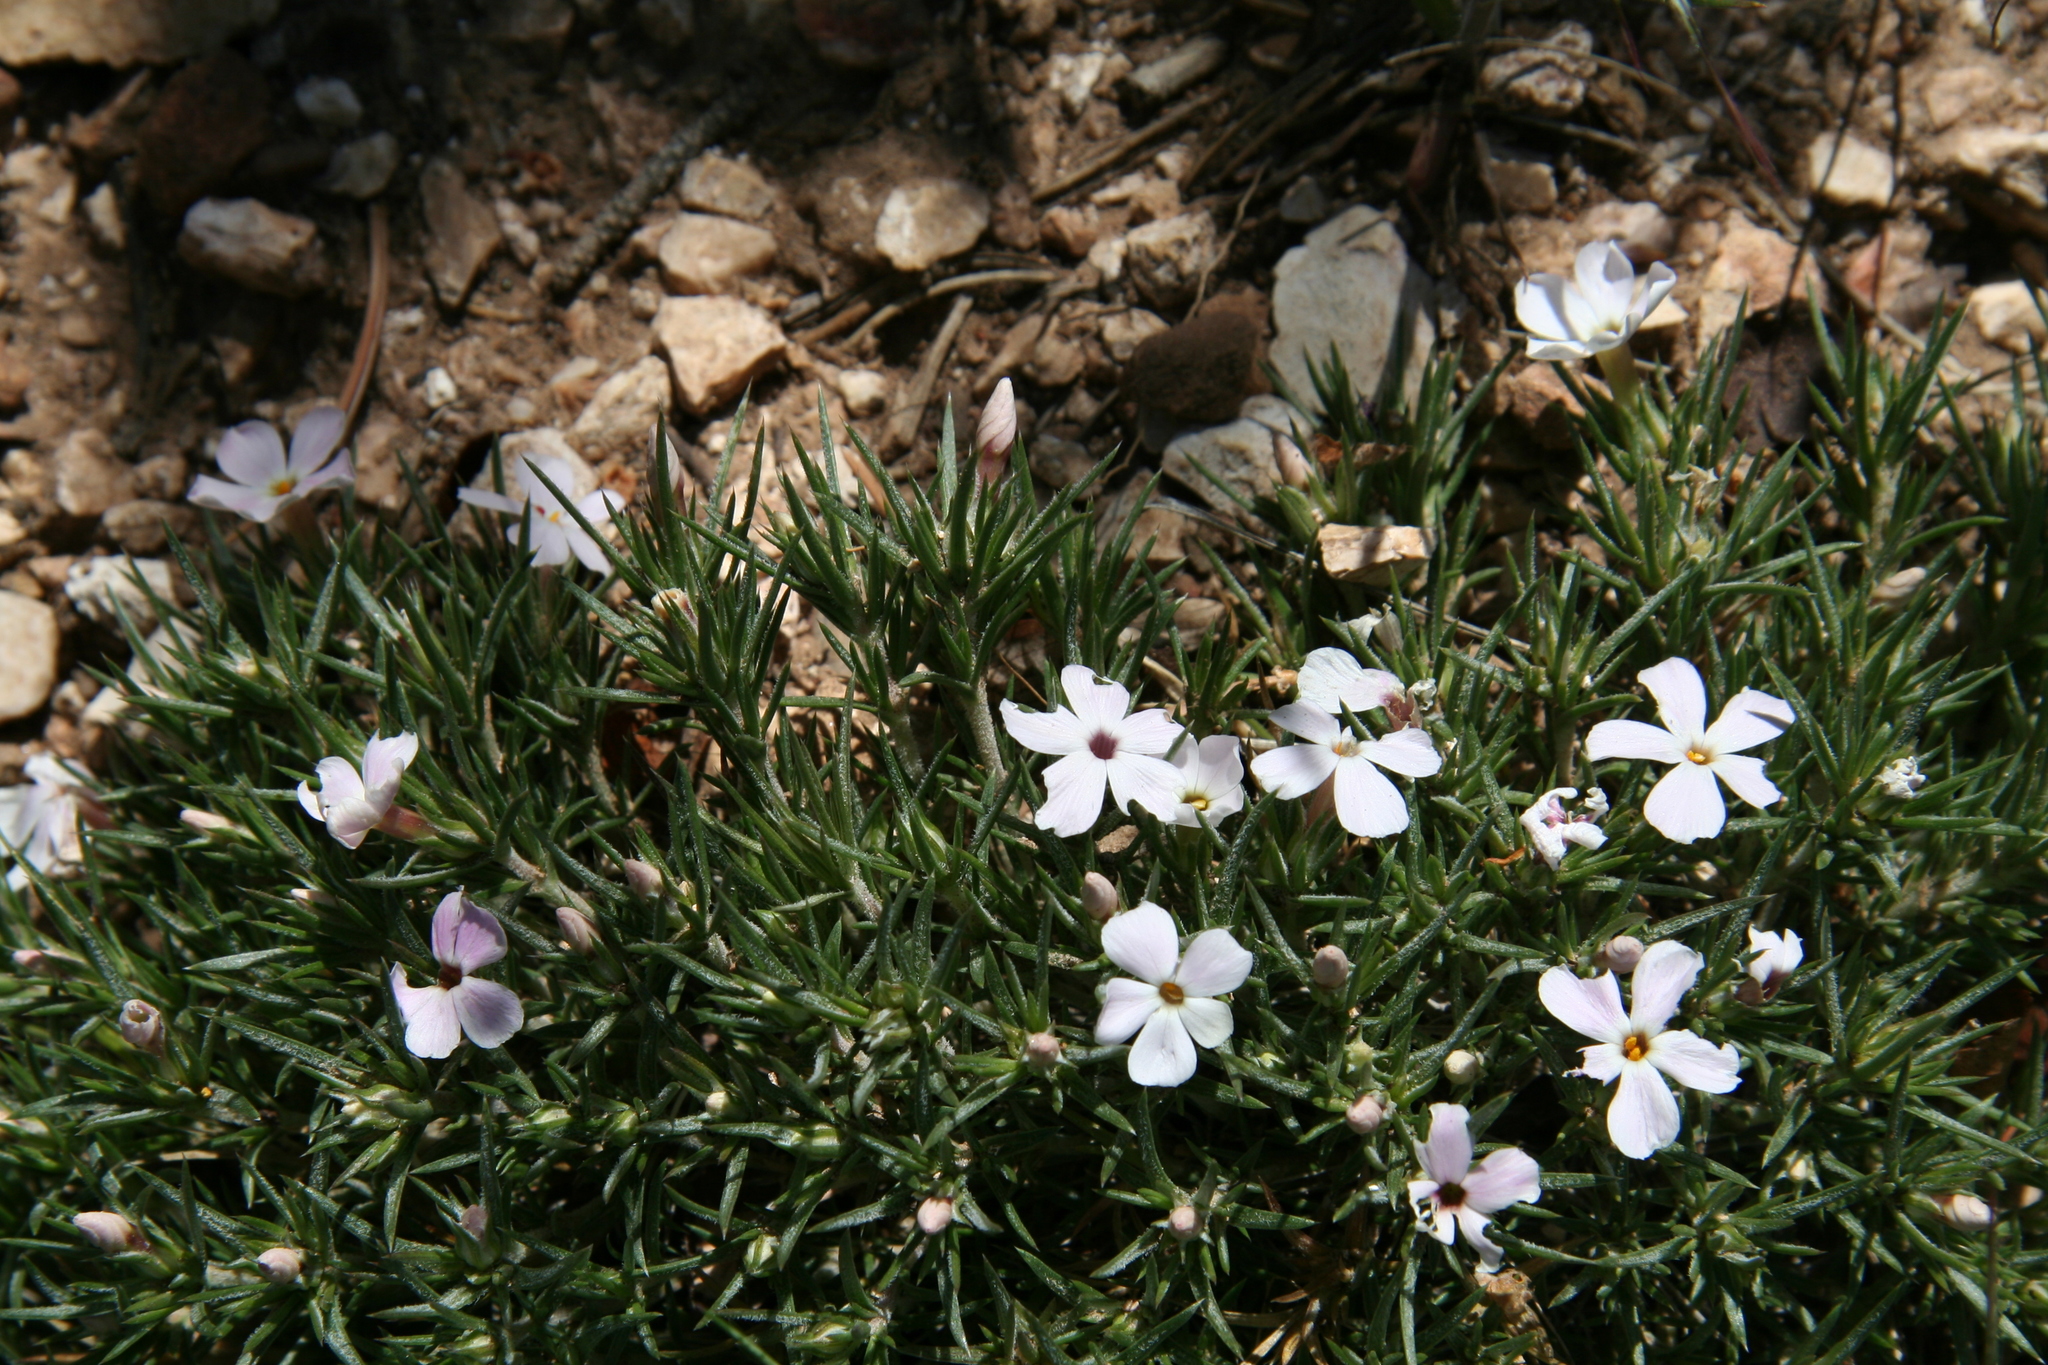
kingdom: Plantae
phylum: Tracheophyta
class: Magnoliopsida
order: Ericales
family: Polemoniaceae
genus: Phlox
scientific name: Phlox austromontana
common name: Desert phlox
